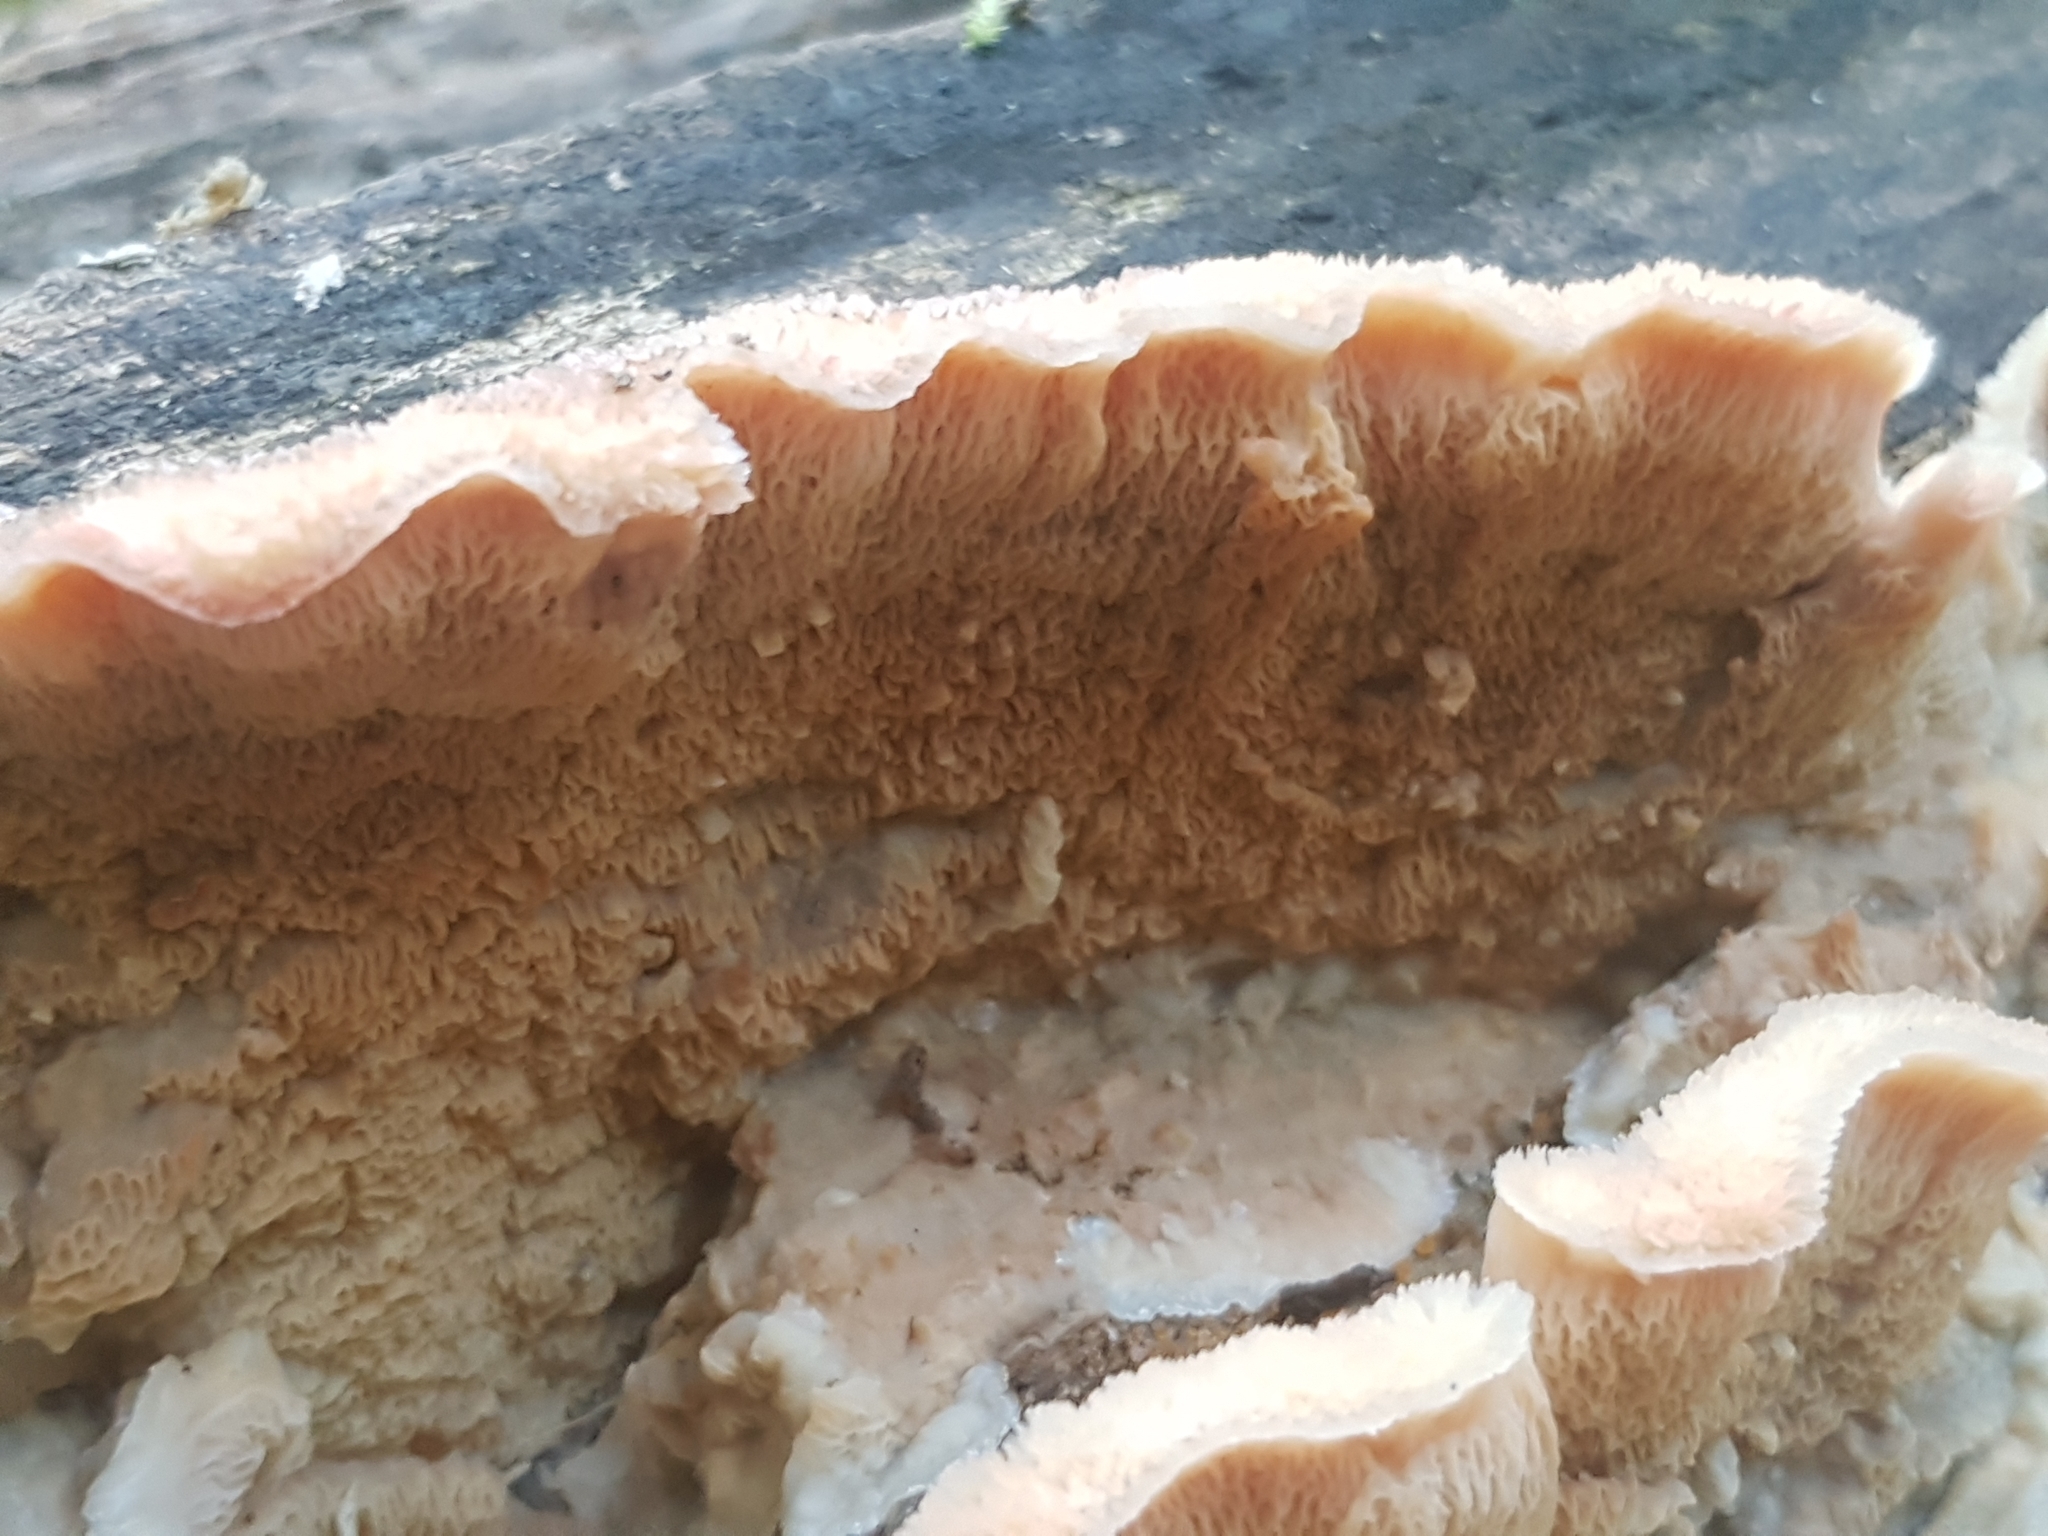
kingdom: Fungi
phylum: Basidiomycota
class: Agaricomycetes
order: Polyporales
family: Meruliaceae
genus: Phlebia
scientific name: Phlebia tremellosa
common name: Jelly rot
